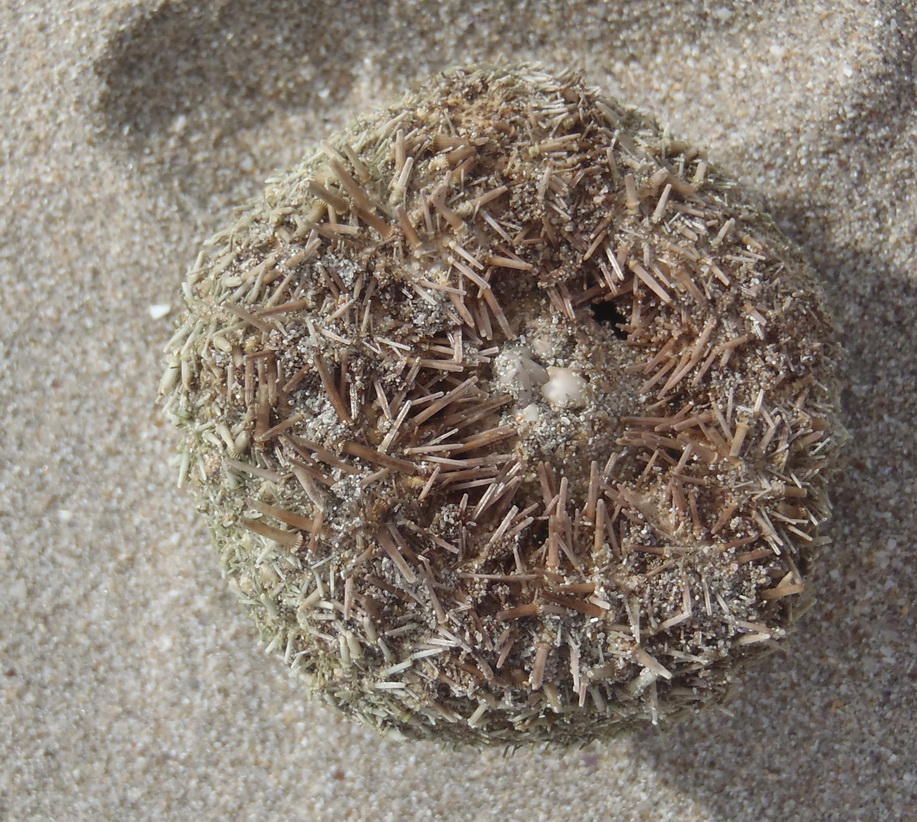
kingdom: Animalia
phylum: Echinodermata
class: Echinoidea
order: Camarodonta
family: Parechinidae
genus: Parechinus
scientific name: Parechinus angulosus
